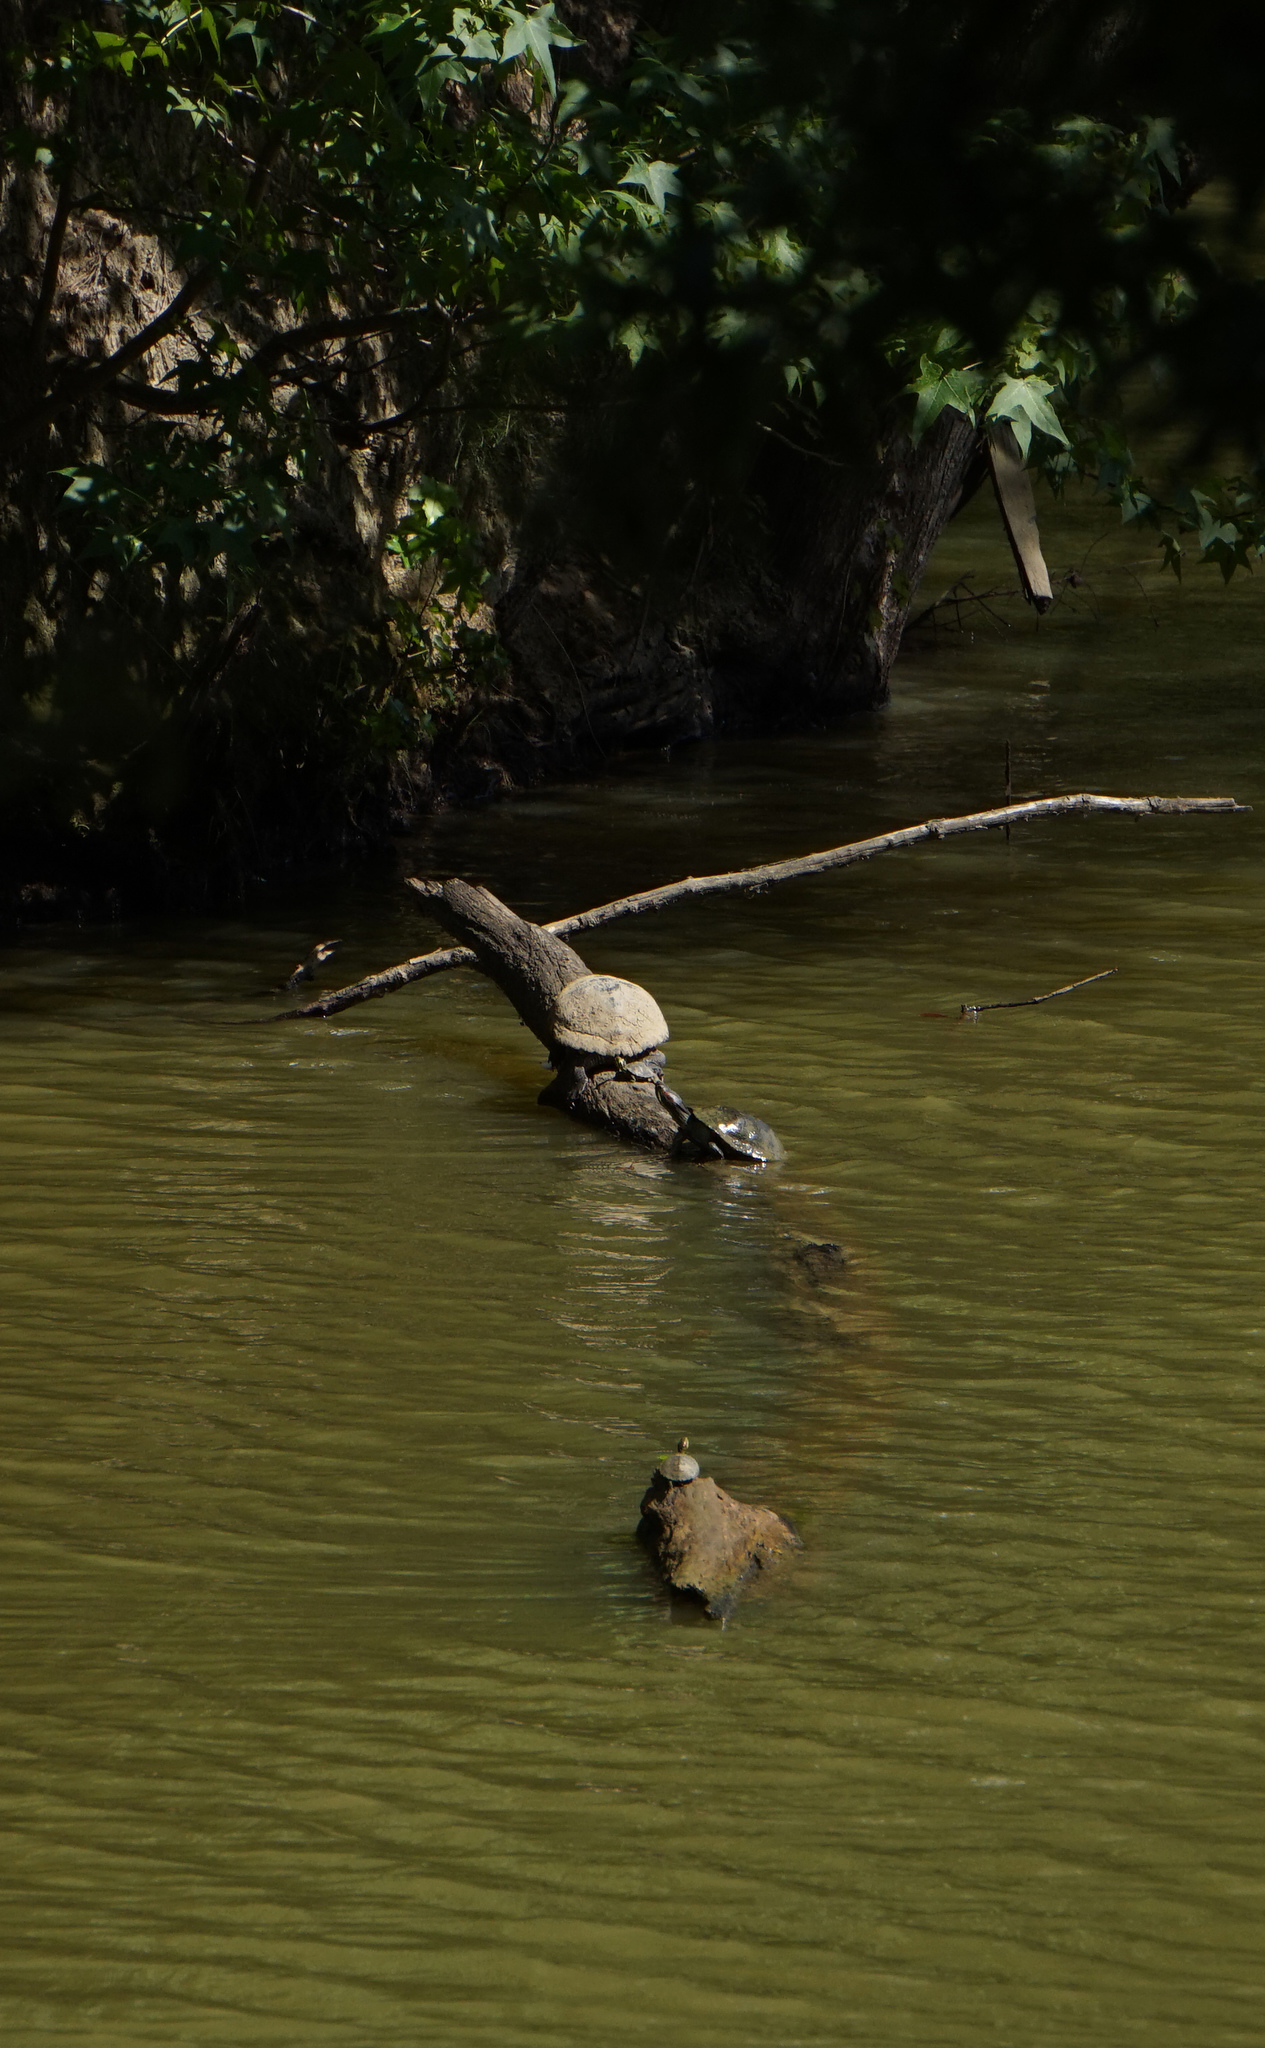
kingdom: Animalia
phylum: Chordata
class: Testudines
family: Emydidae
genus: Trachemys
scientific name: Trachemys scripta
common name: Slider
